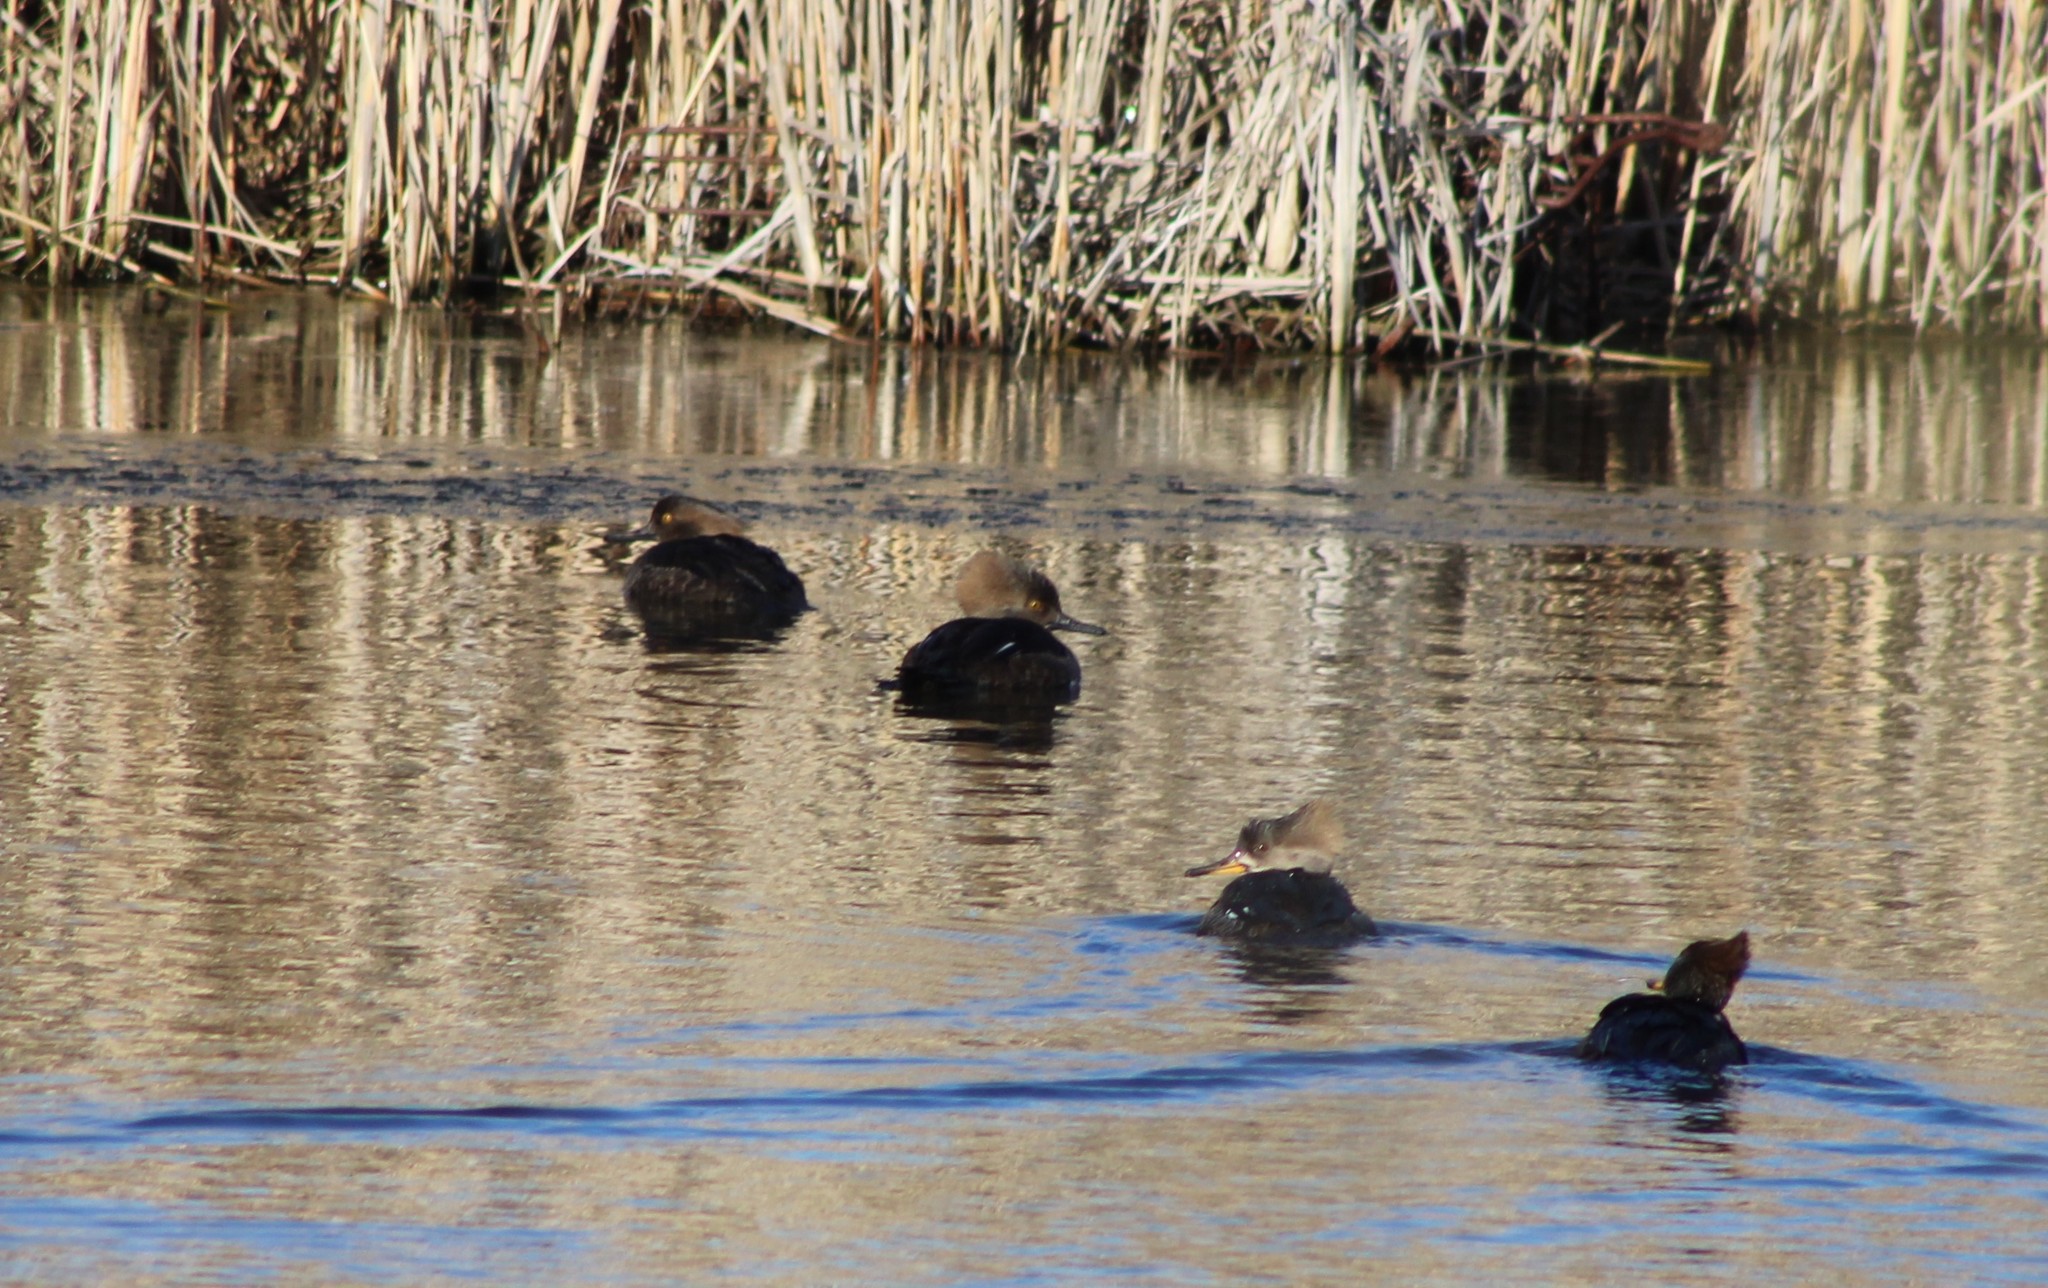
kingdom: Animalia
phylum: Chordata
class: Aves
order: Anseriformes
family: Anatidae
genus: Lophodytes
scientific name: Lophodytes cucullatus
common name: Hooded merganser
